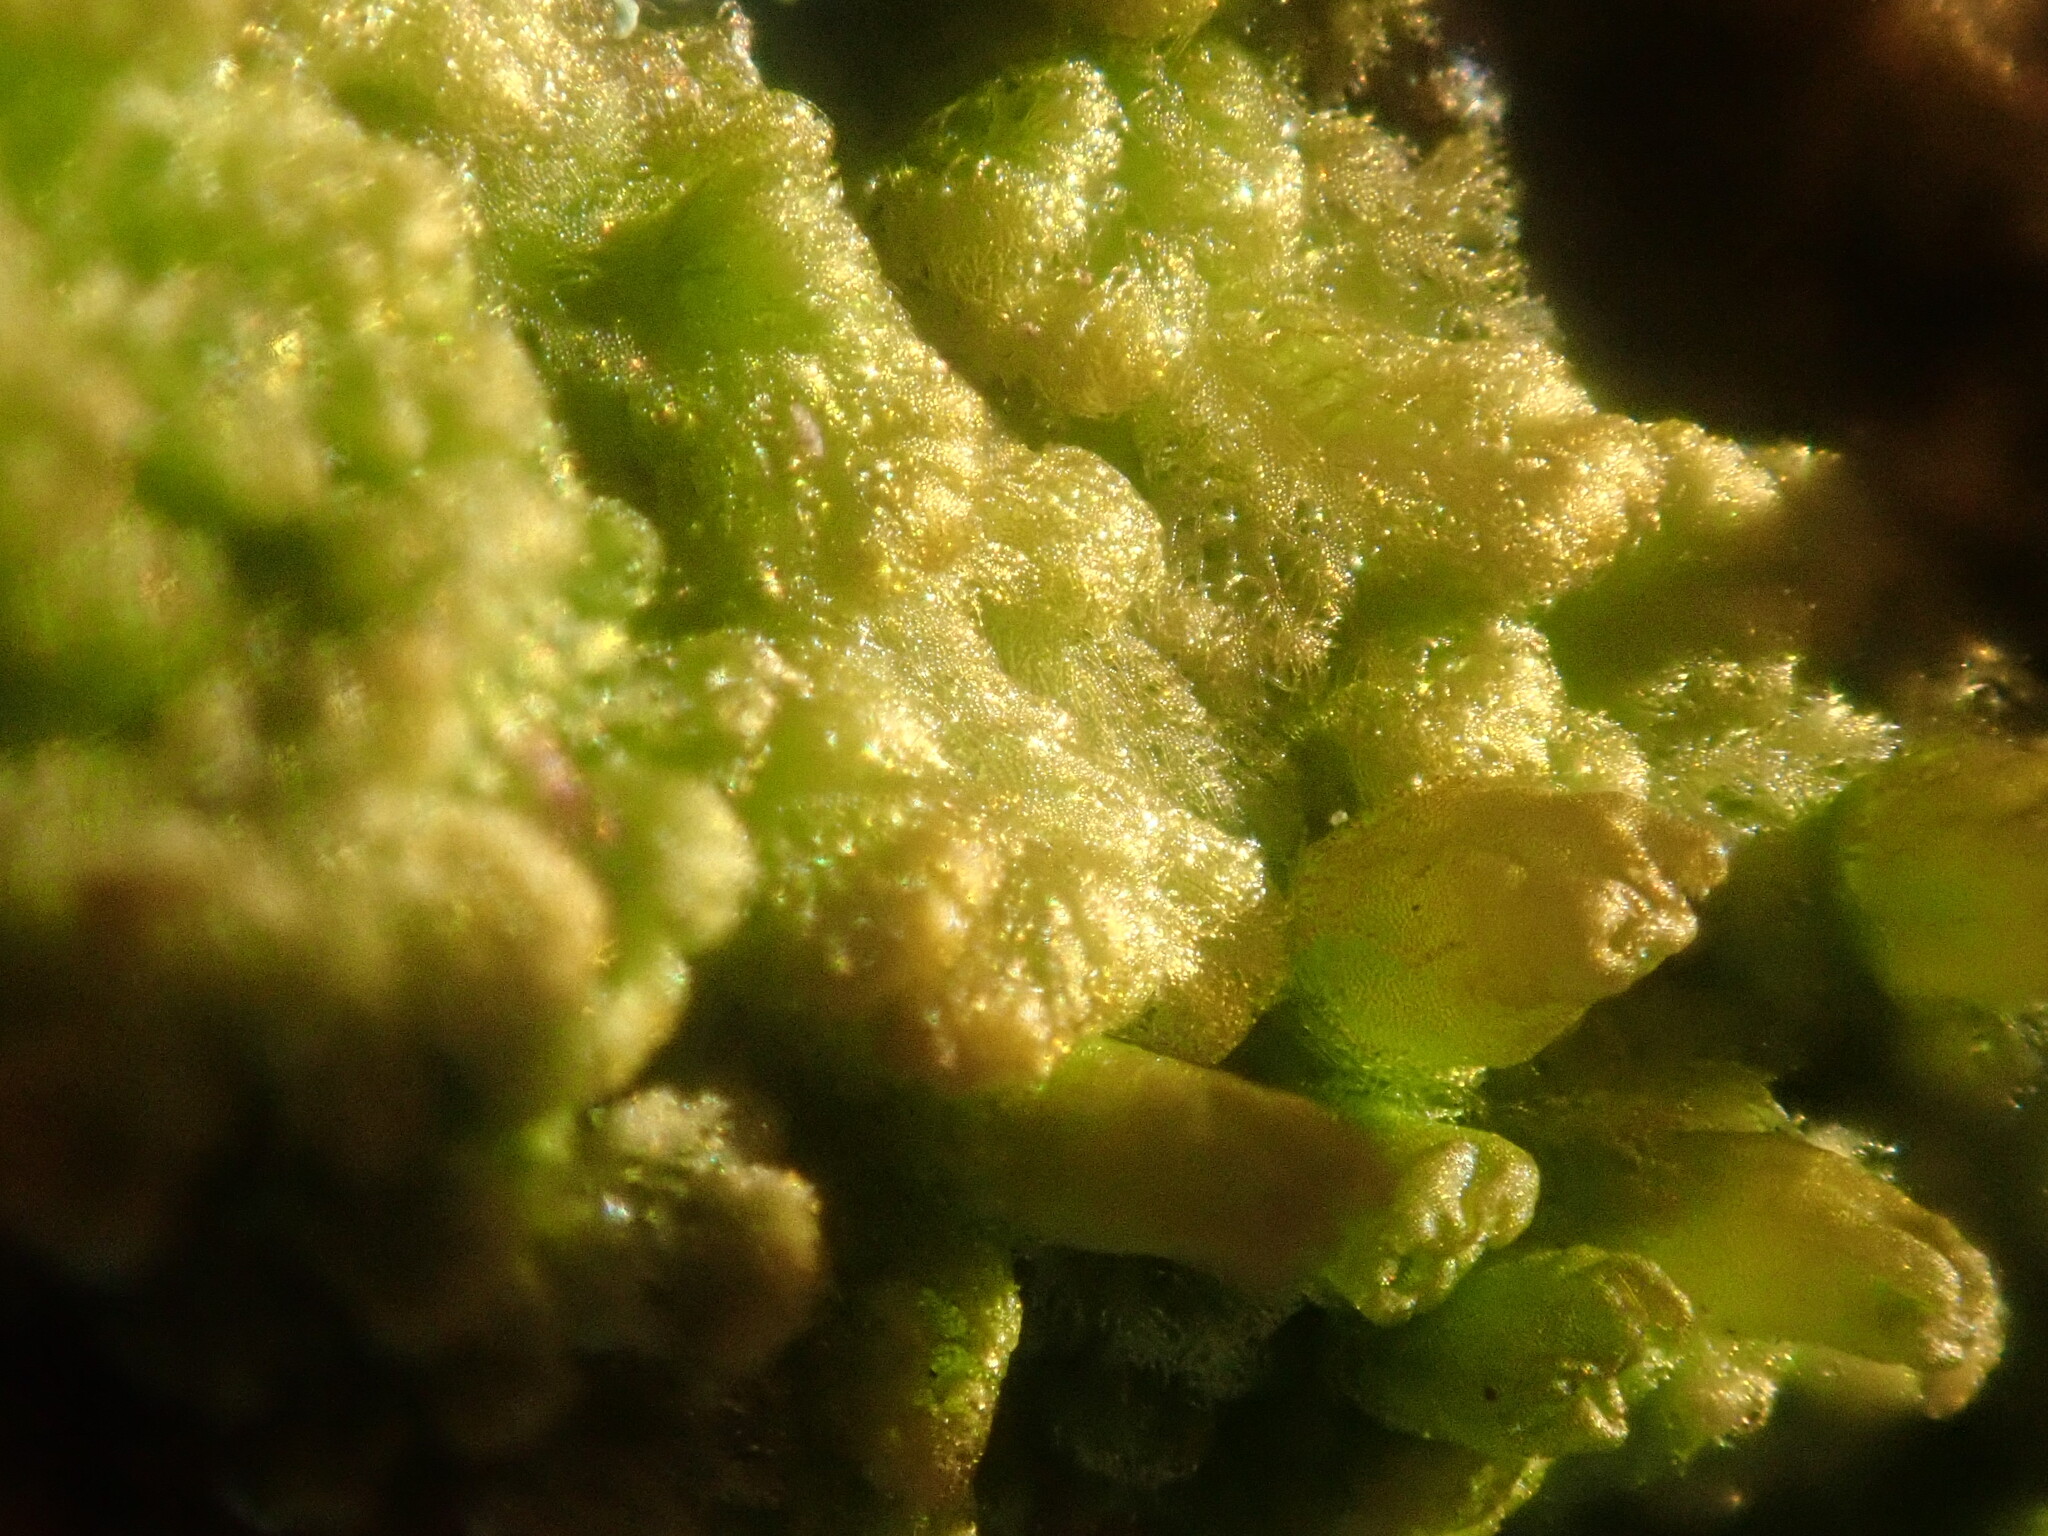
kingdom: Plantae
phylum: Marchantiophyta
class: Jungermanniopsida
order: Ptilidiales
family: Ptilidiaceae
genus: Ptilidium
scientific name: Ptilidium pulcherrimum
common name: Tree fringewort
